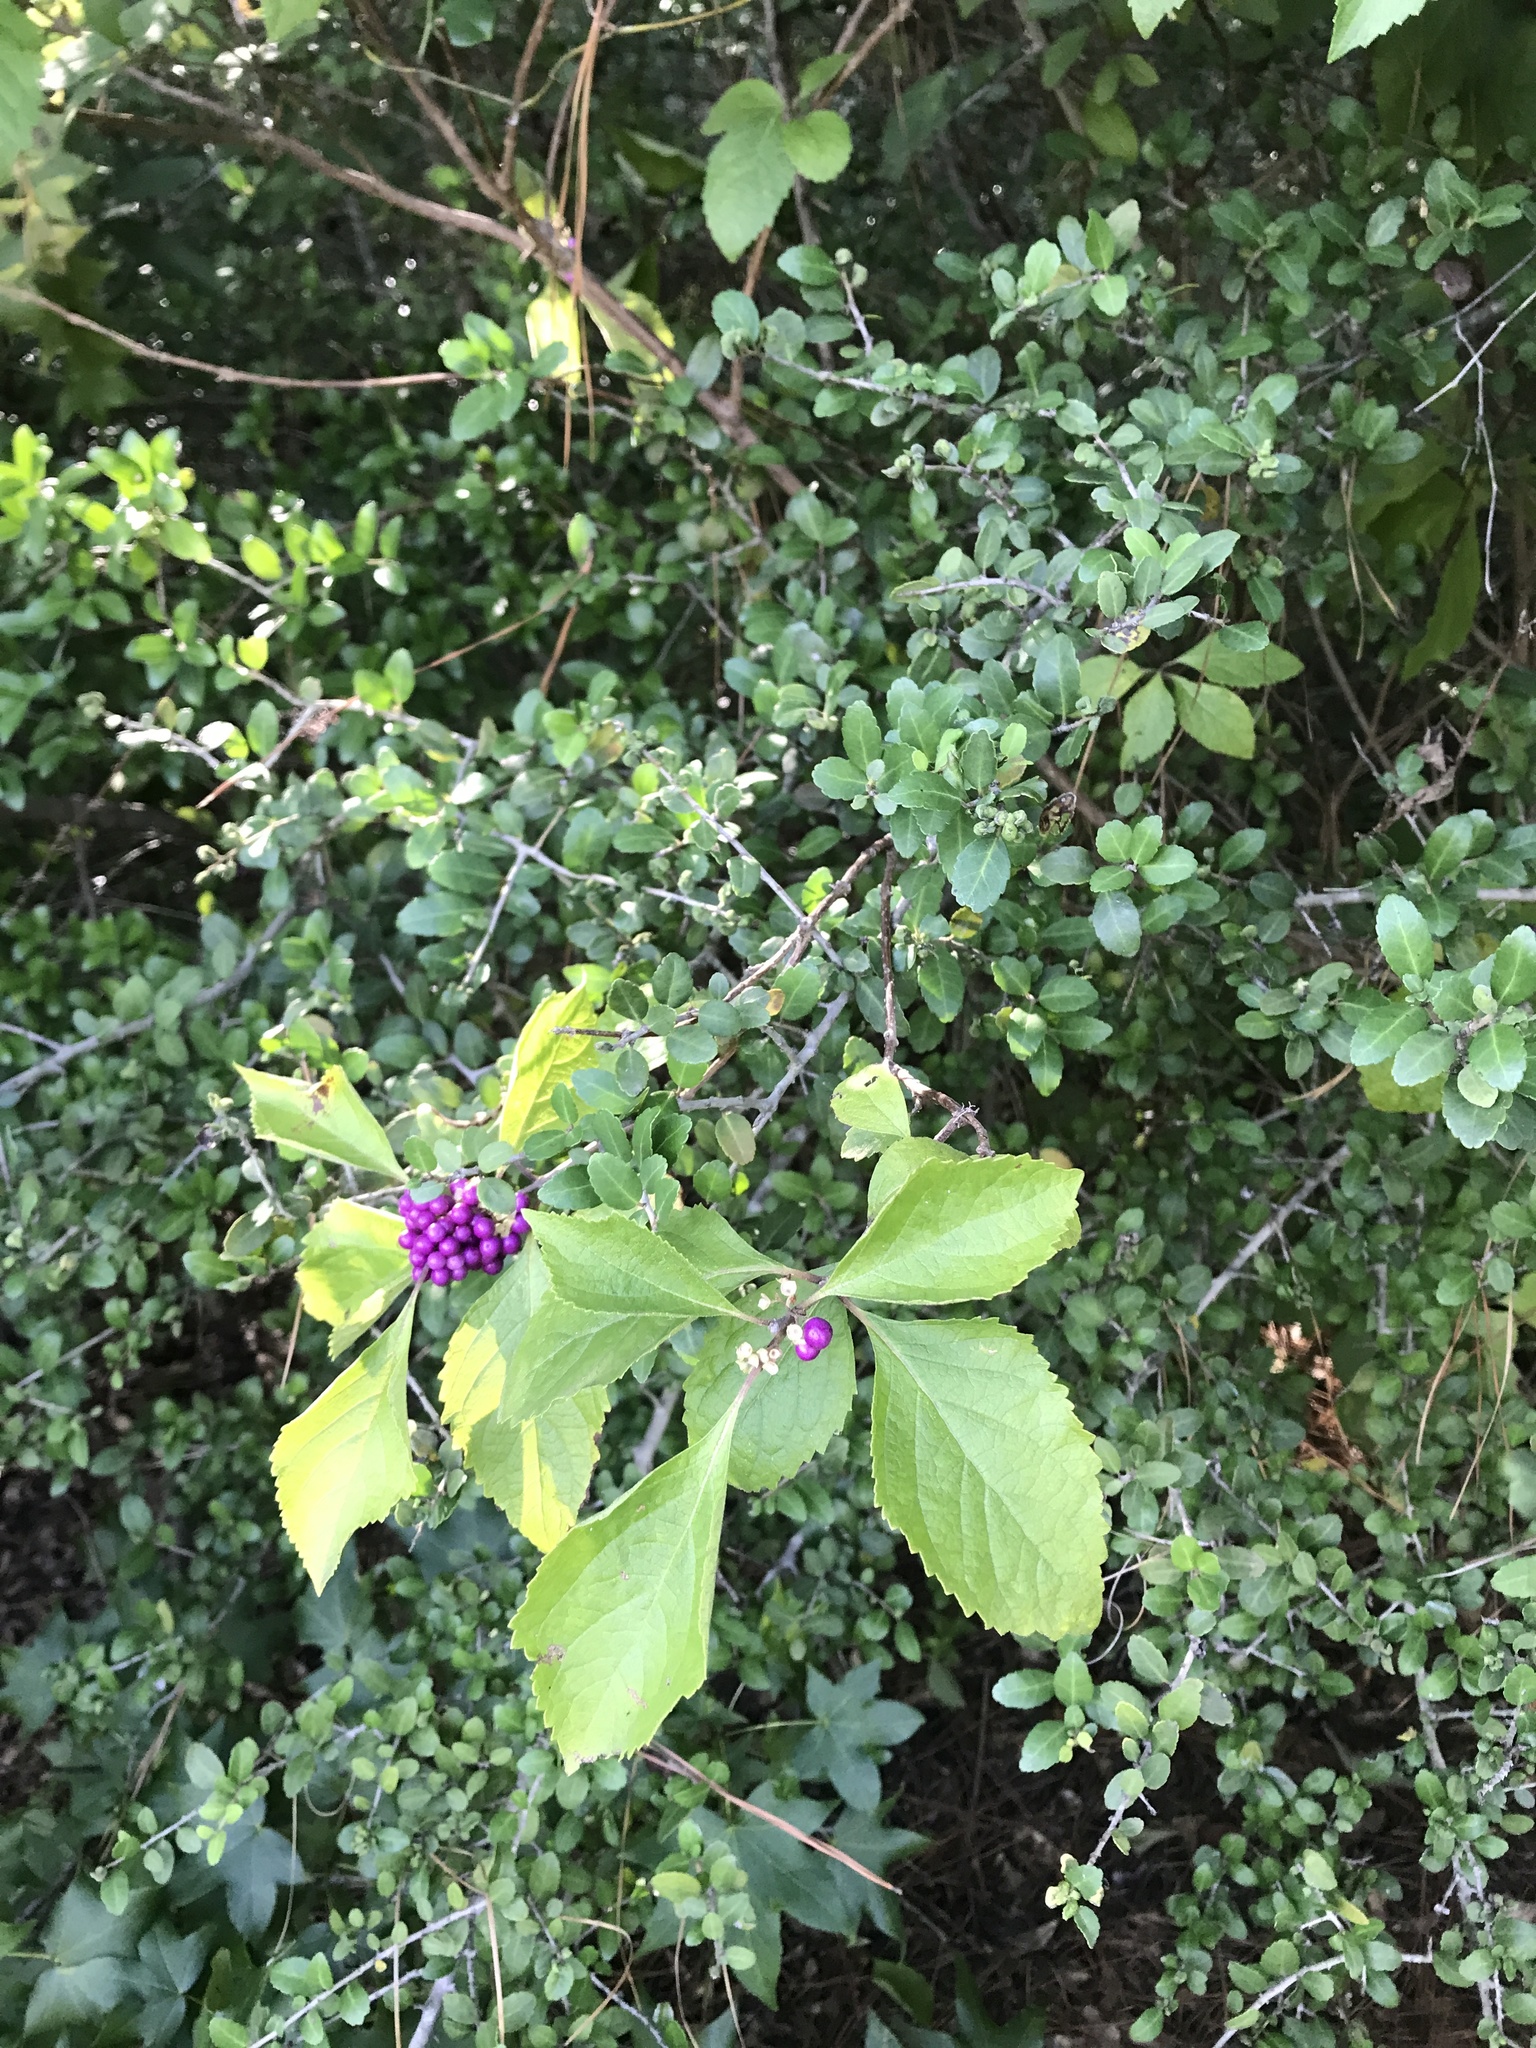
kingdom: Plantae
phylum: Tracheophyta
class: Magnoliopsida
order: Lamiales
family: Lamiaceae
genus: Callicarpa
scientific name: Callicarpa americana
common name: American beautyberry
